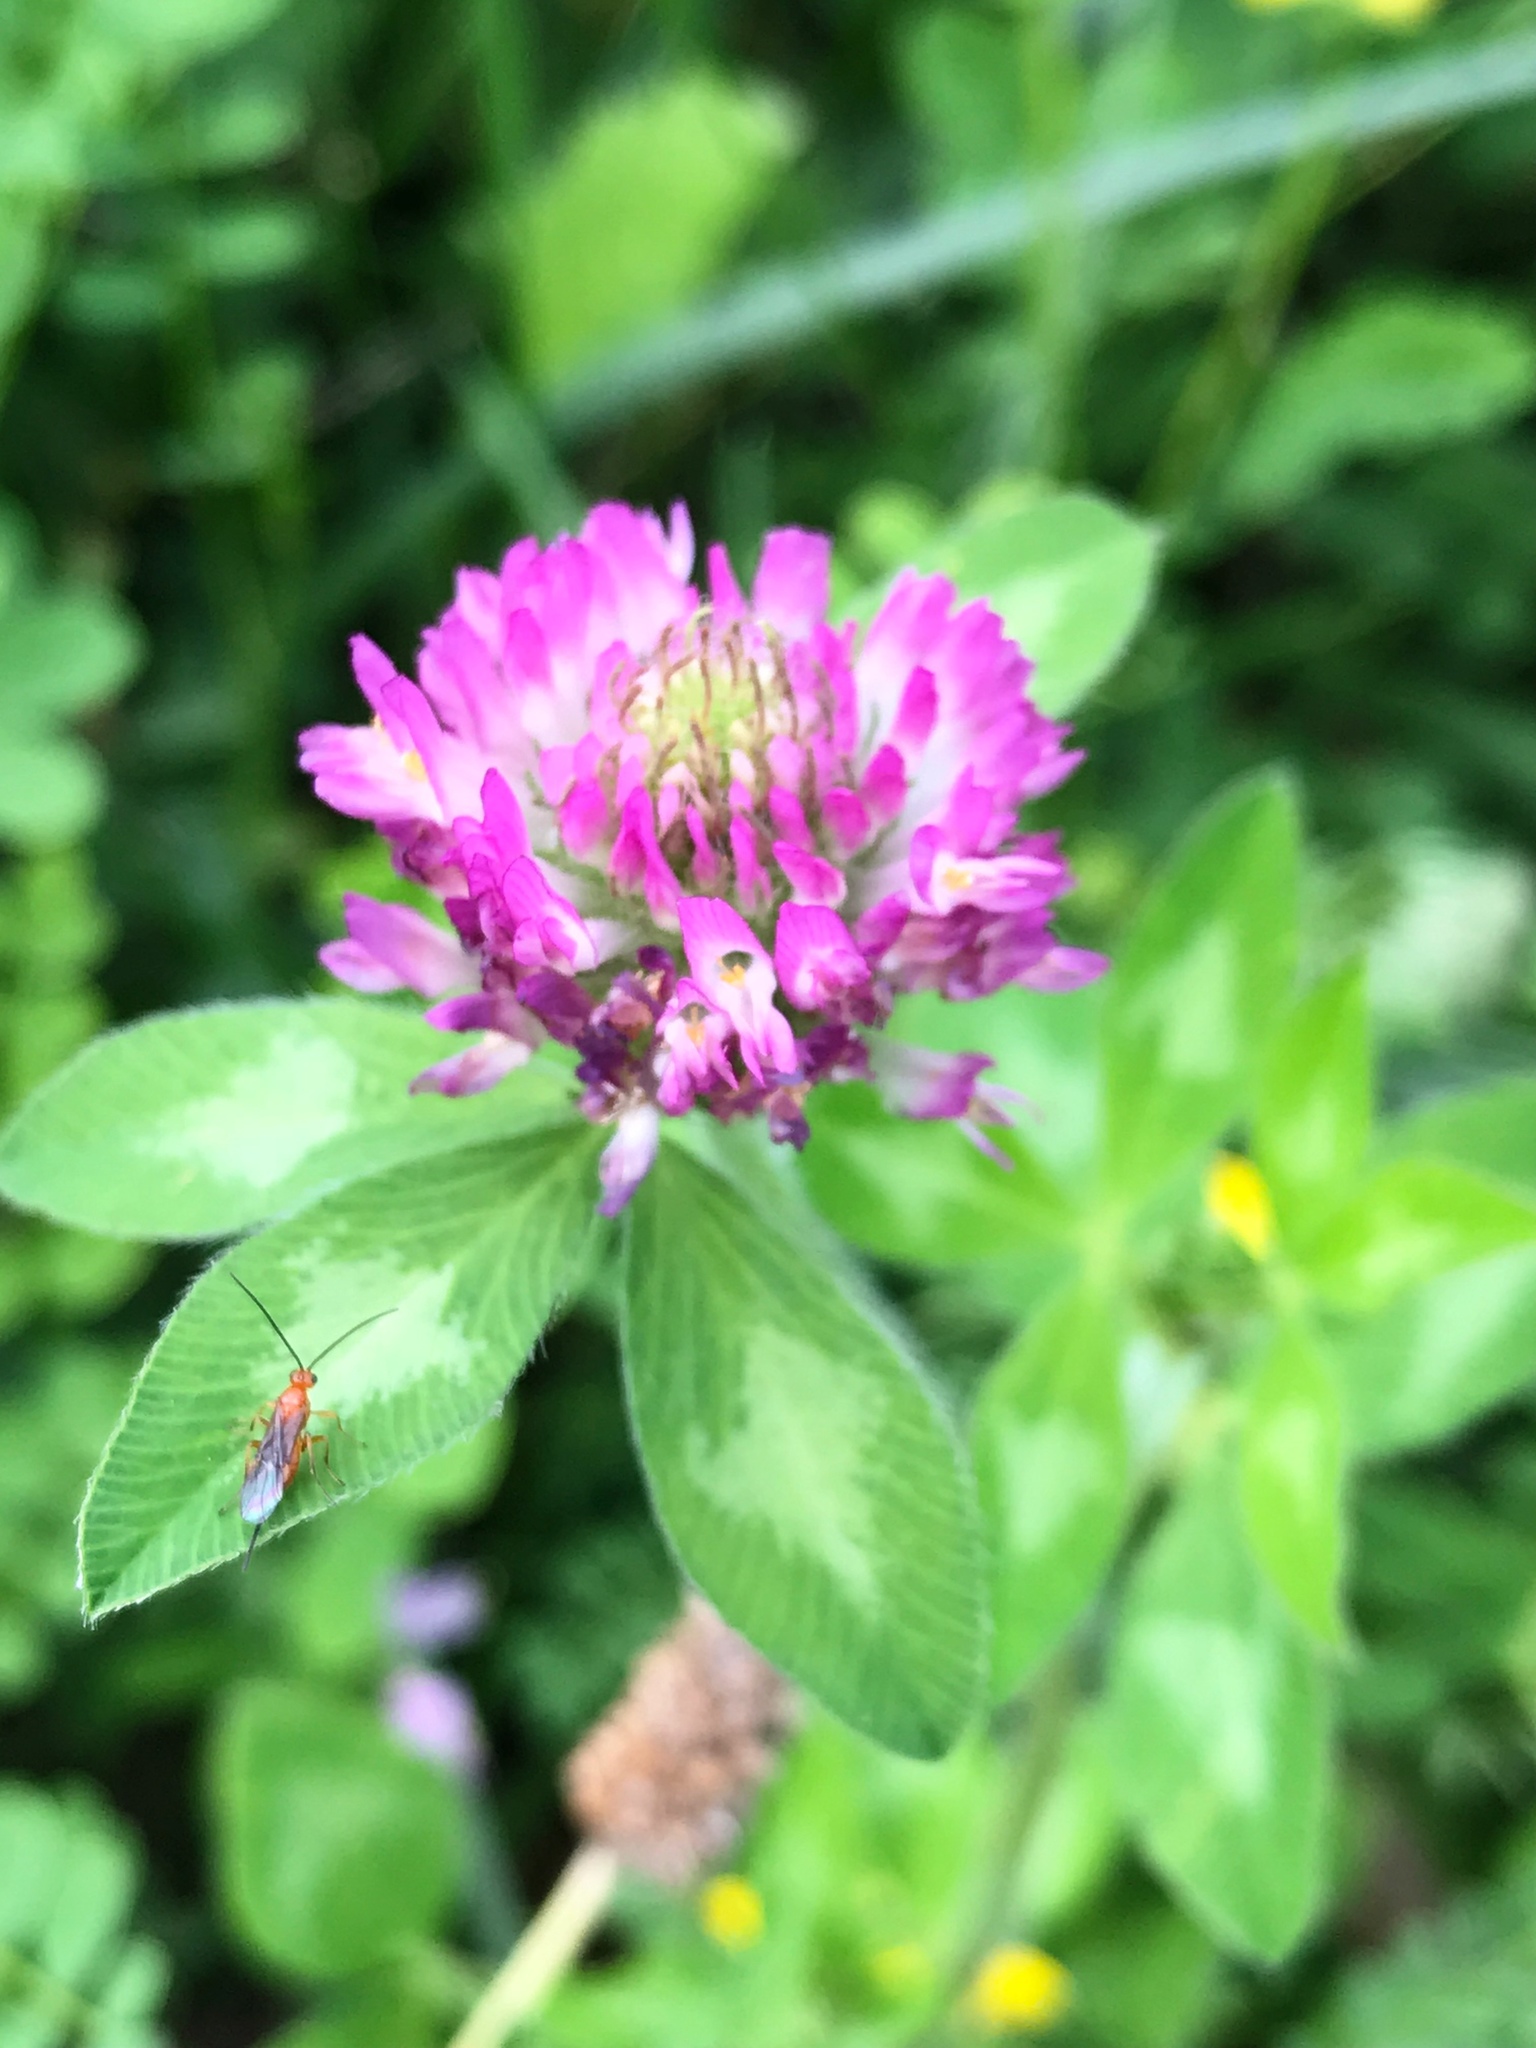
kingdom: Plantae
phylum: Tracheophyta
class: Magnoliopsida
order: Fabales
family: Fabaceae
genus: Trifolium
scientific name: Trifolium pratense
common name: Red clover
